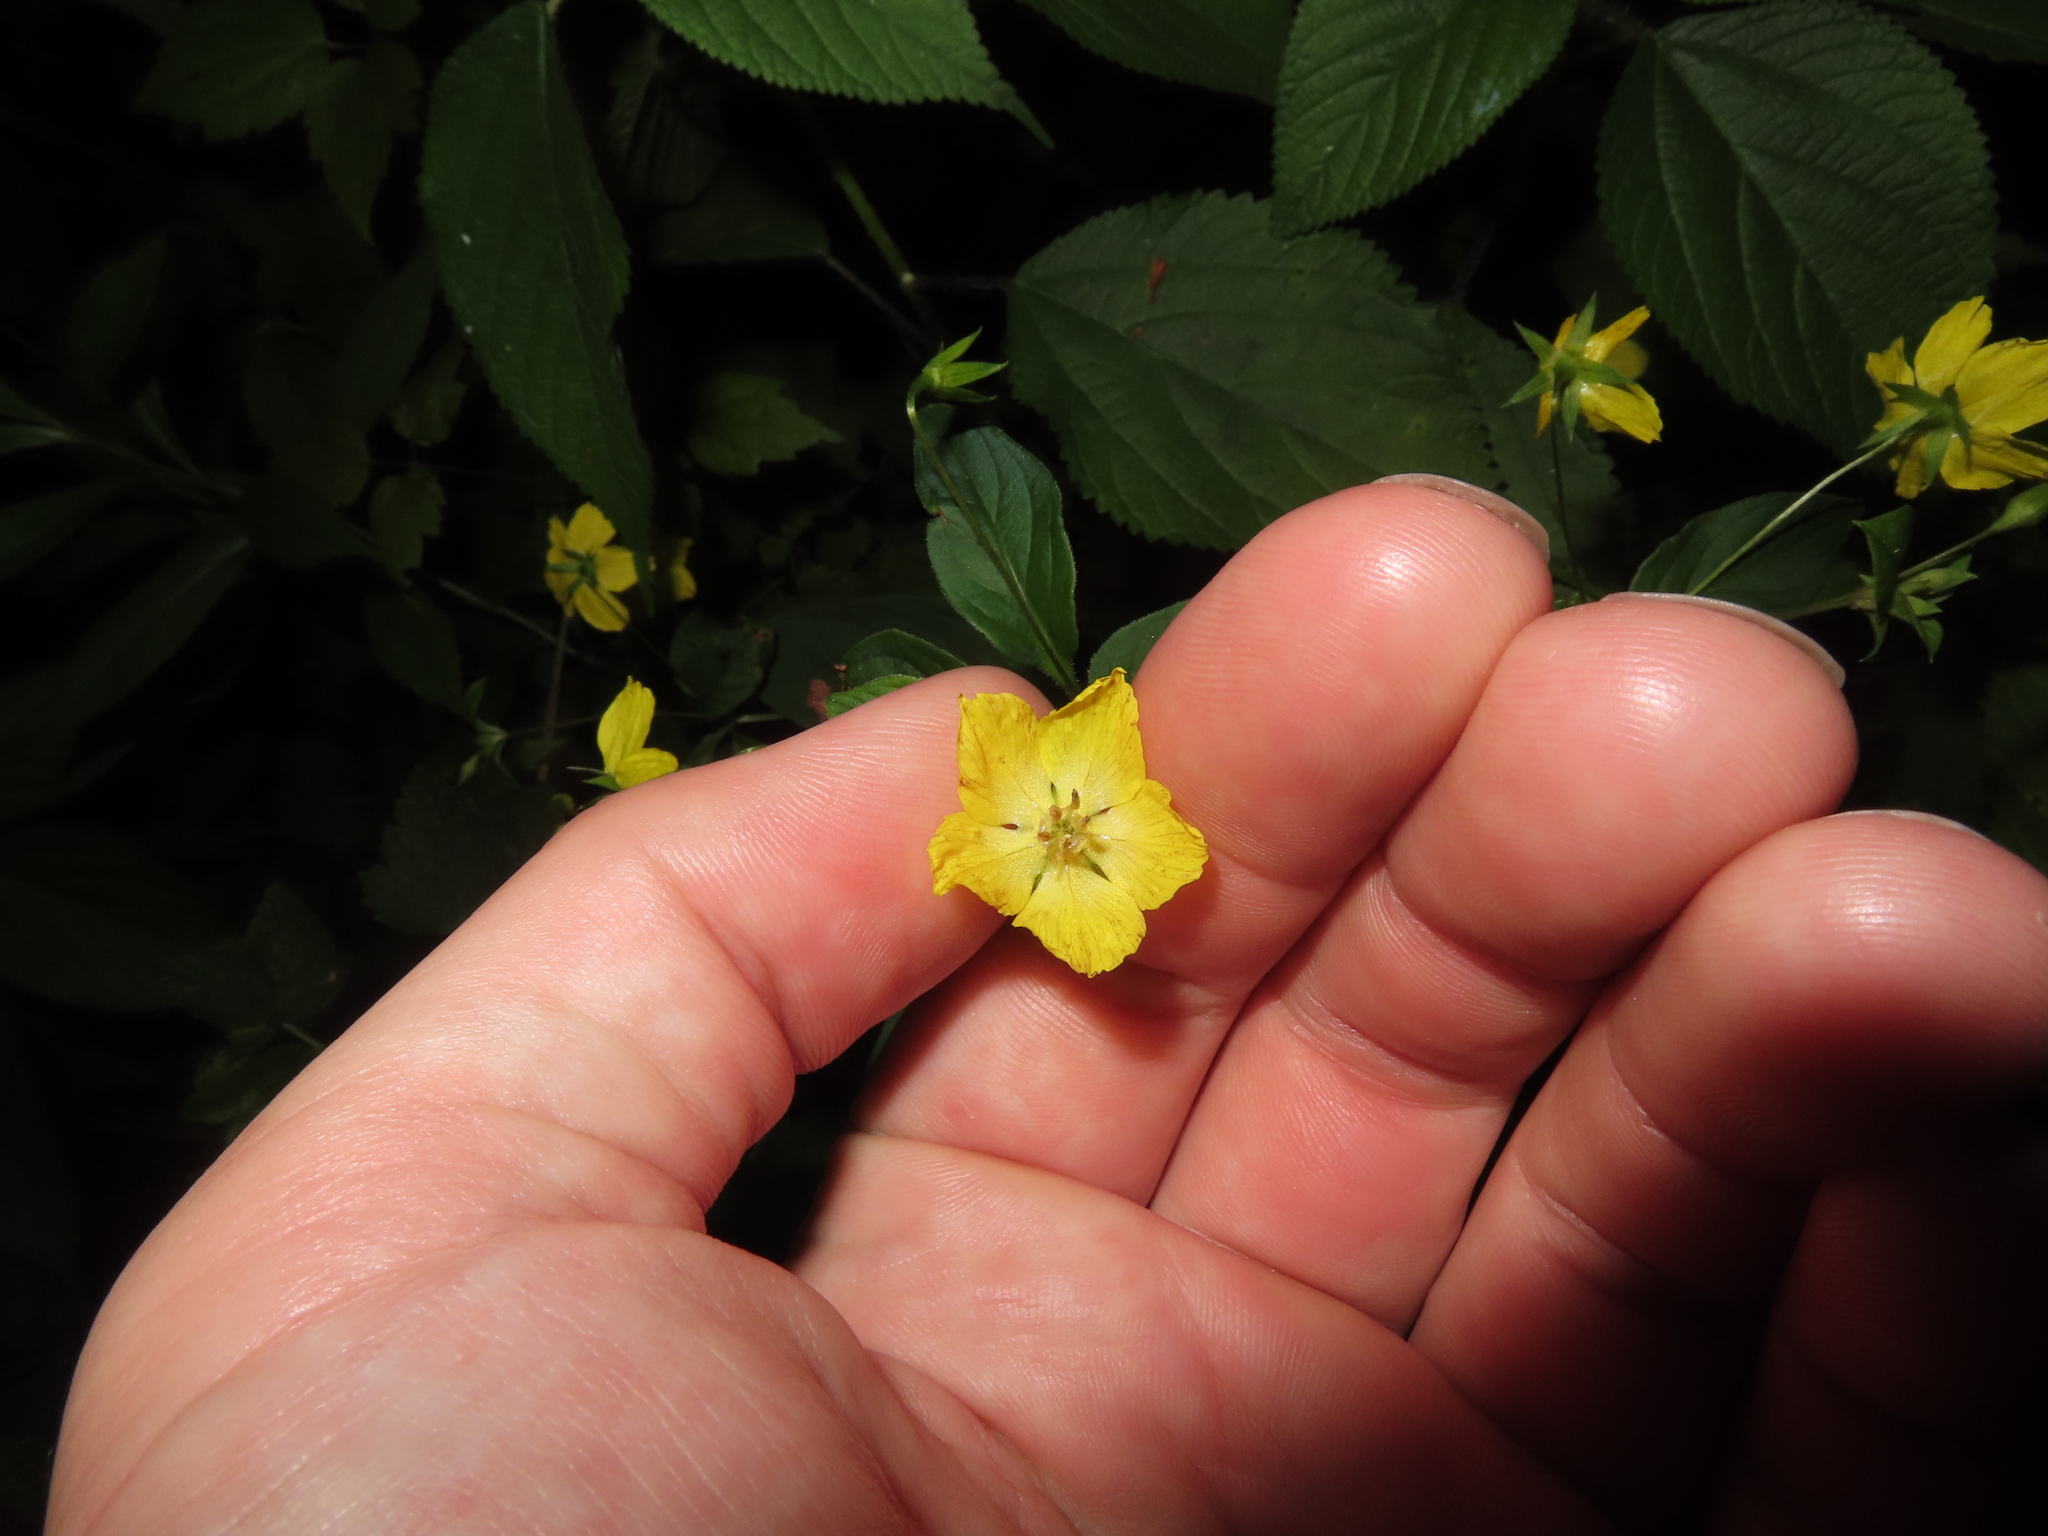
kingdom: Plantae
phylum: Tracheophyta
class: Magnoliopsida
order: Ericales
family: Primulaceae
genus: Lysimachia
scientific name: Lysimachia ciliata
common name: Fringed loosestrife
